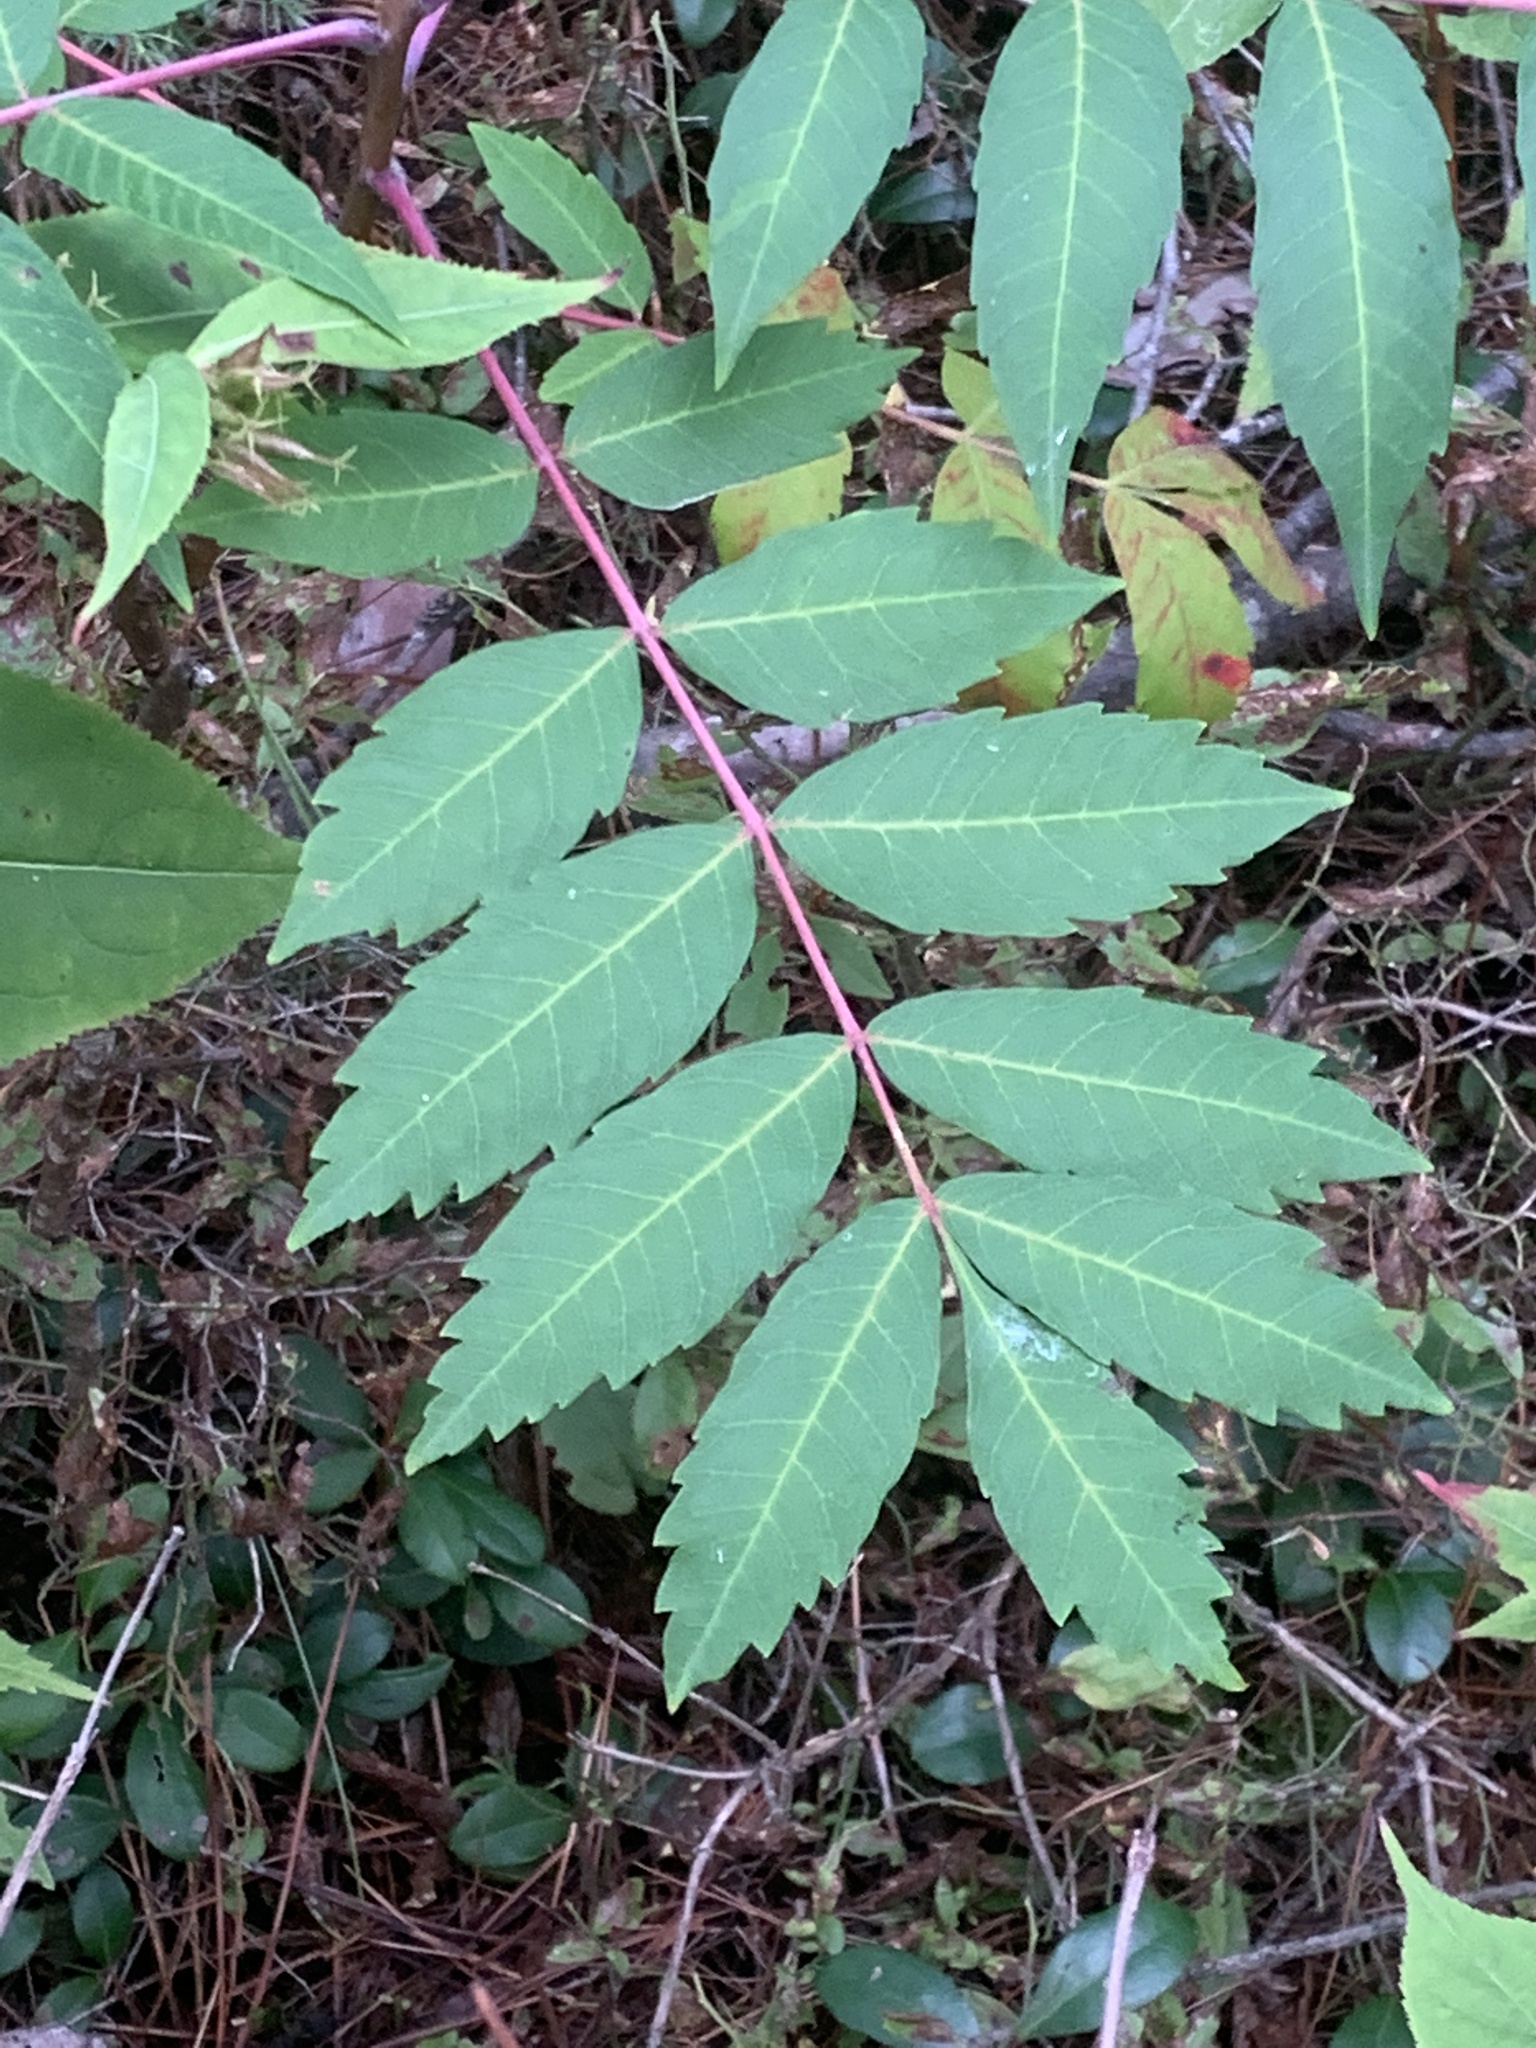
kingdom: Plantae
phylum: Tracheophyta
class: Magnoliopsida
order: Sapindales
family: Anacardiaceae
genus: Rhus
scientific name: Rhus glabra
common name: Scarlet sumac
